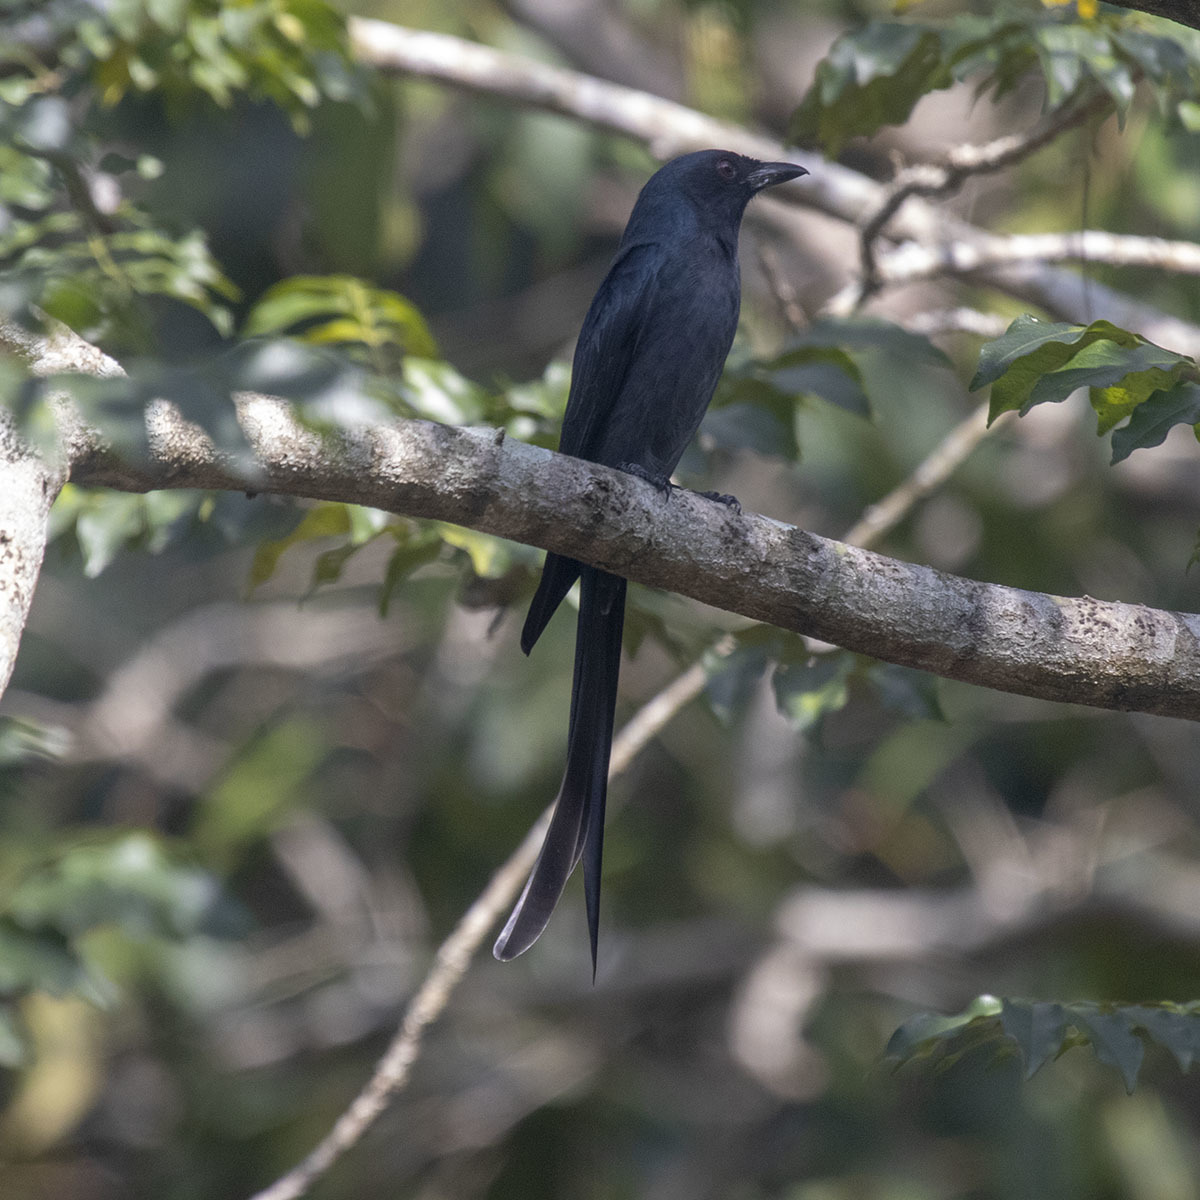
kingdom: Animalia
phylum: Chordata
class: Aves
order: Passeriformes
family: Dicruridae
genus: Dicrurus
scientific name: Dicrurus leucophaeus
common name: Ashy drongo
